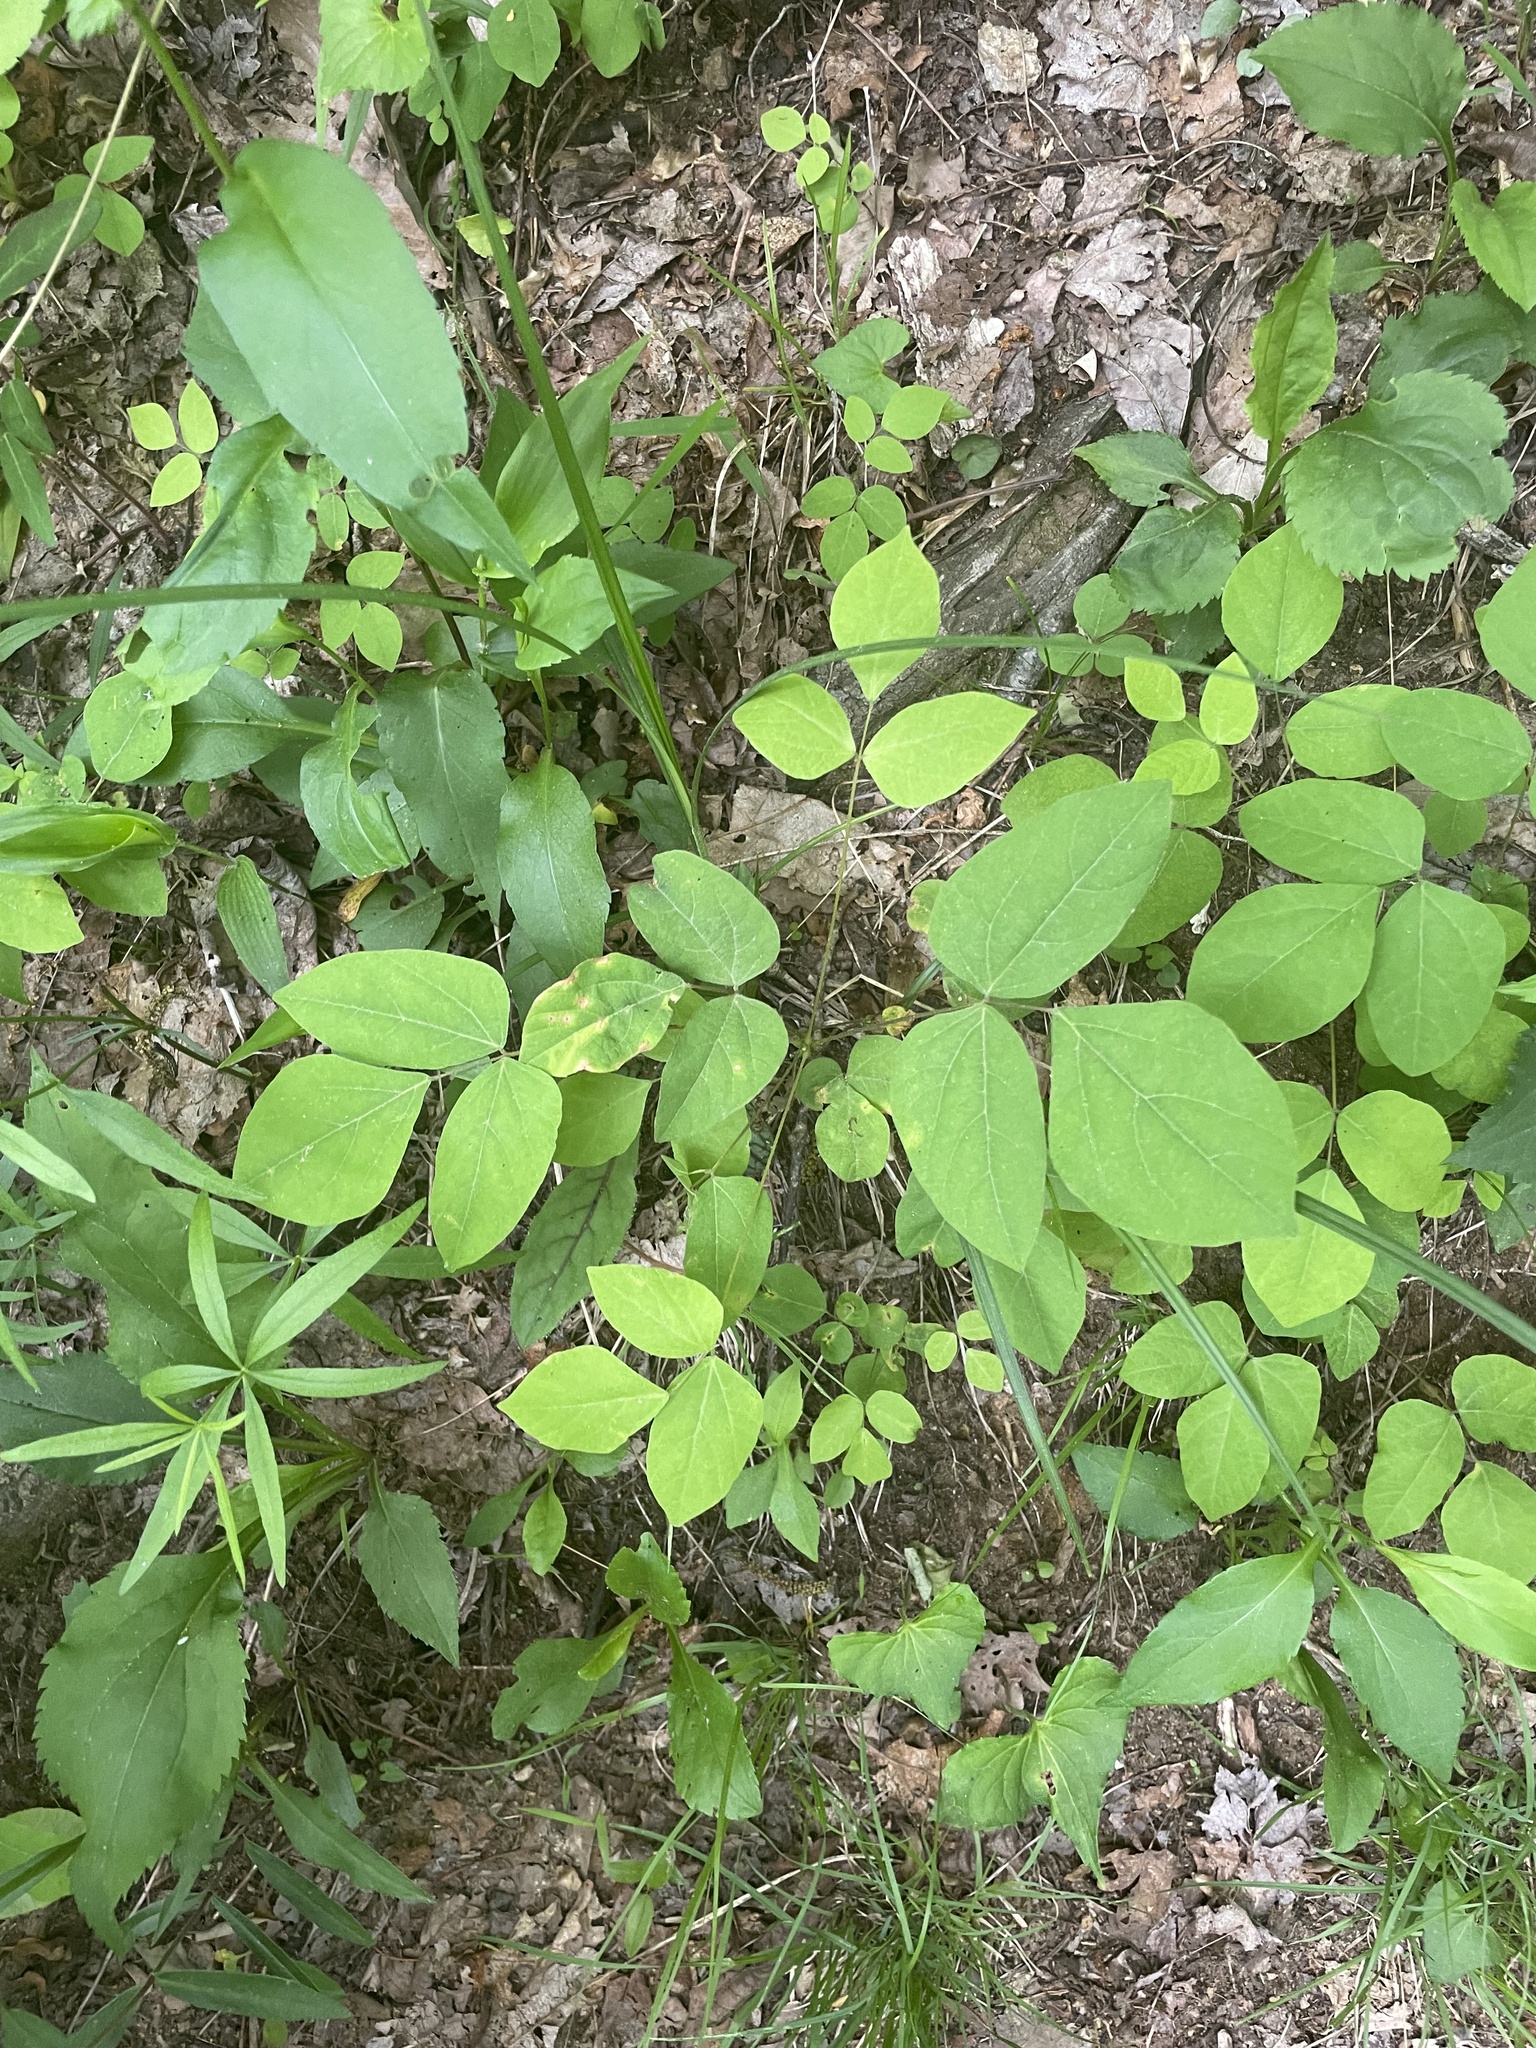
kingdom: Plantae
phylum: Tracheophyta
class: Magnoliopsida
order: Fabales
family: Fabaceae
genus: Hylodesmum
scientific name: Hylodesmum nudiflorum
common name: Bare-stemmed tick-trefoil
